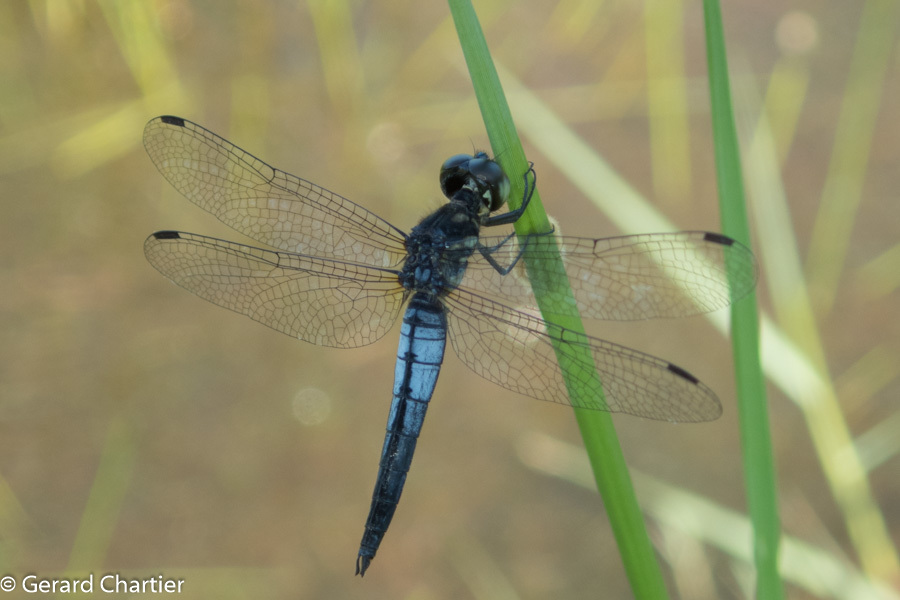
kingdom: Animalia
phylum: Arthropoda
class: Insecta
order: Odonata
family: Libellulidae
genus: Lyriothemis
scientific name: Lyriothemis mortoni
